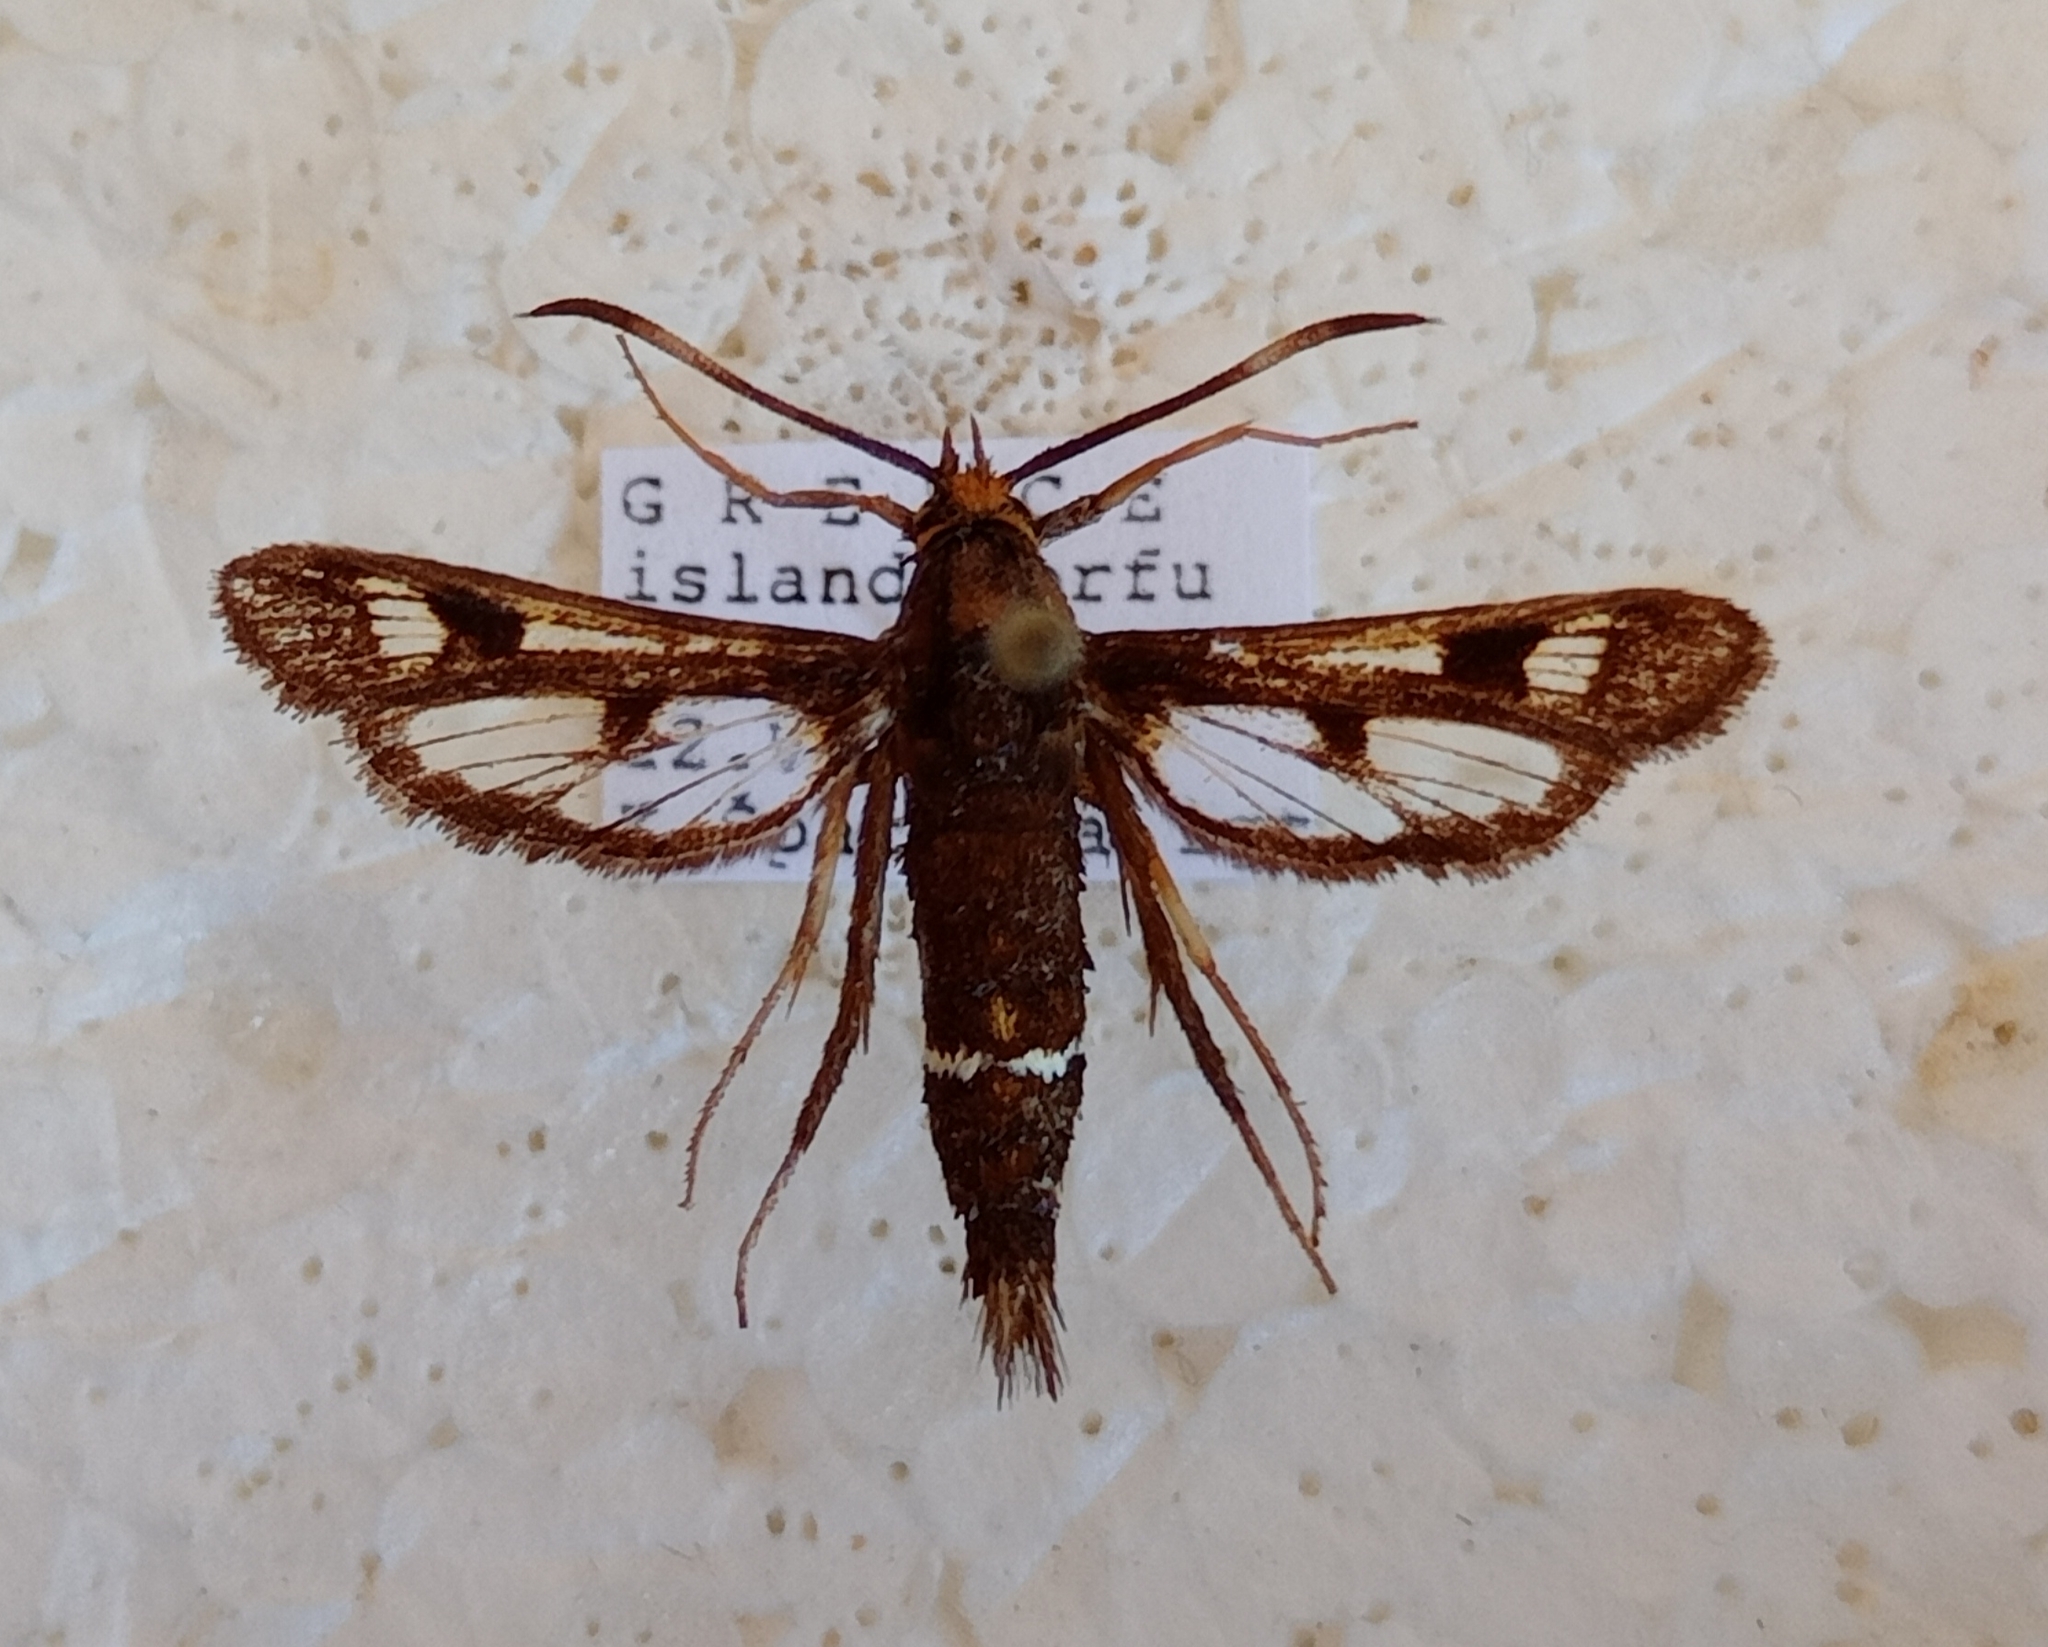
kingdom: Animalia
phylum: Arthropoda
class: Insecta
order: Lepidoptera
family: Sesiidae
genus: Pyropteron
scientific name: Pyropteron umbrifera
